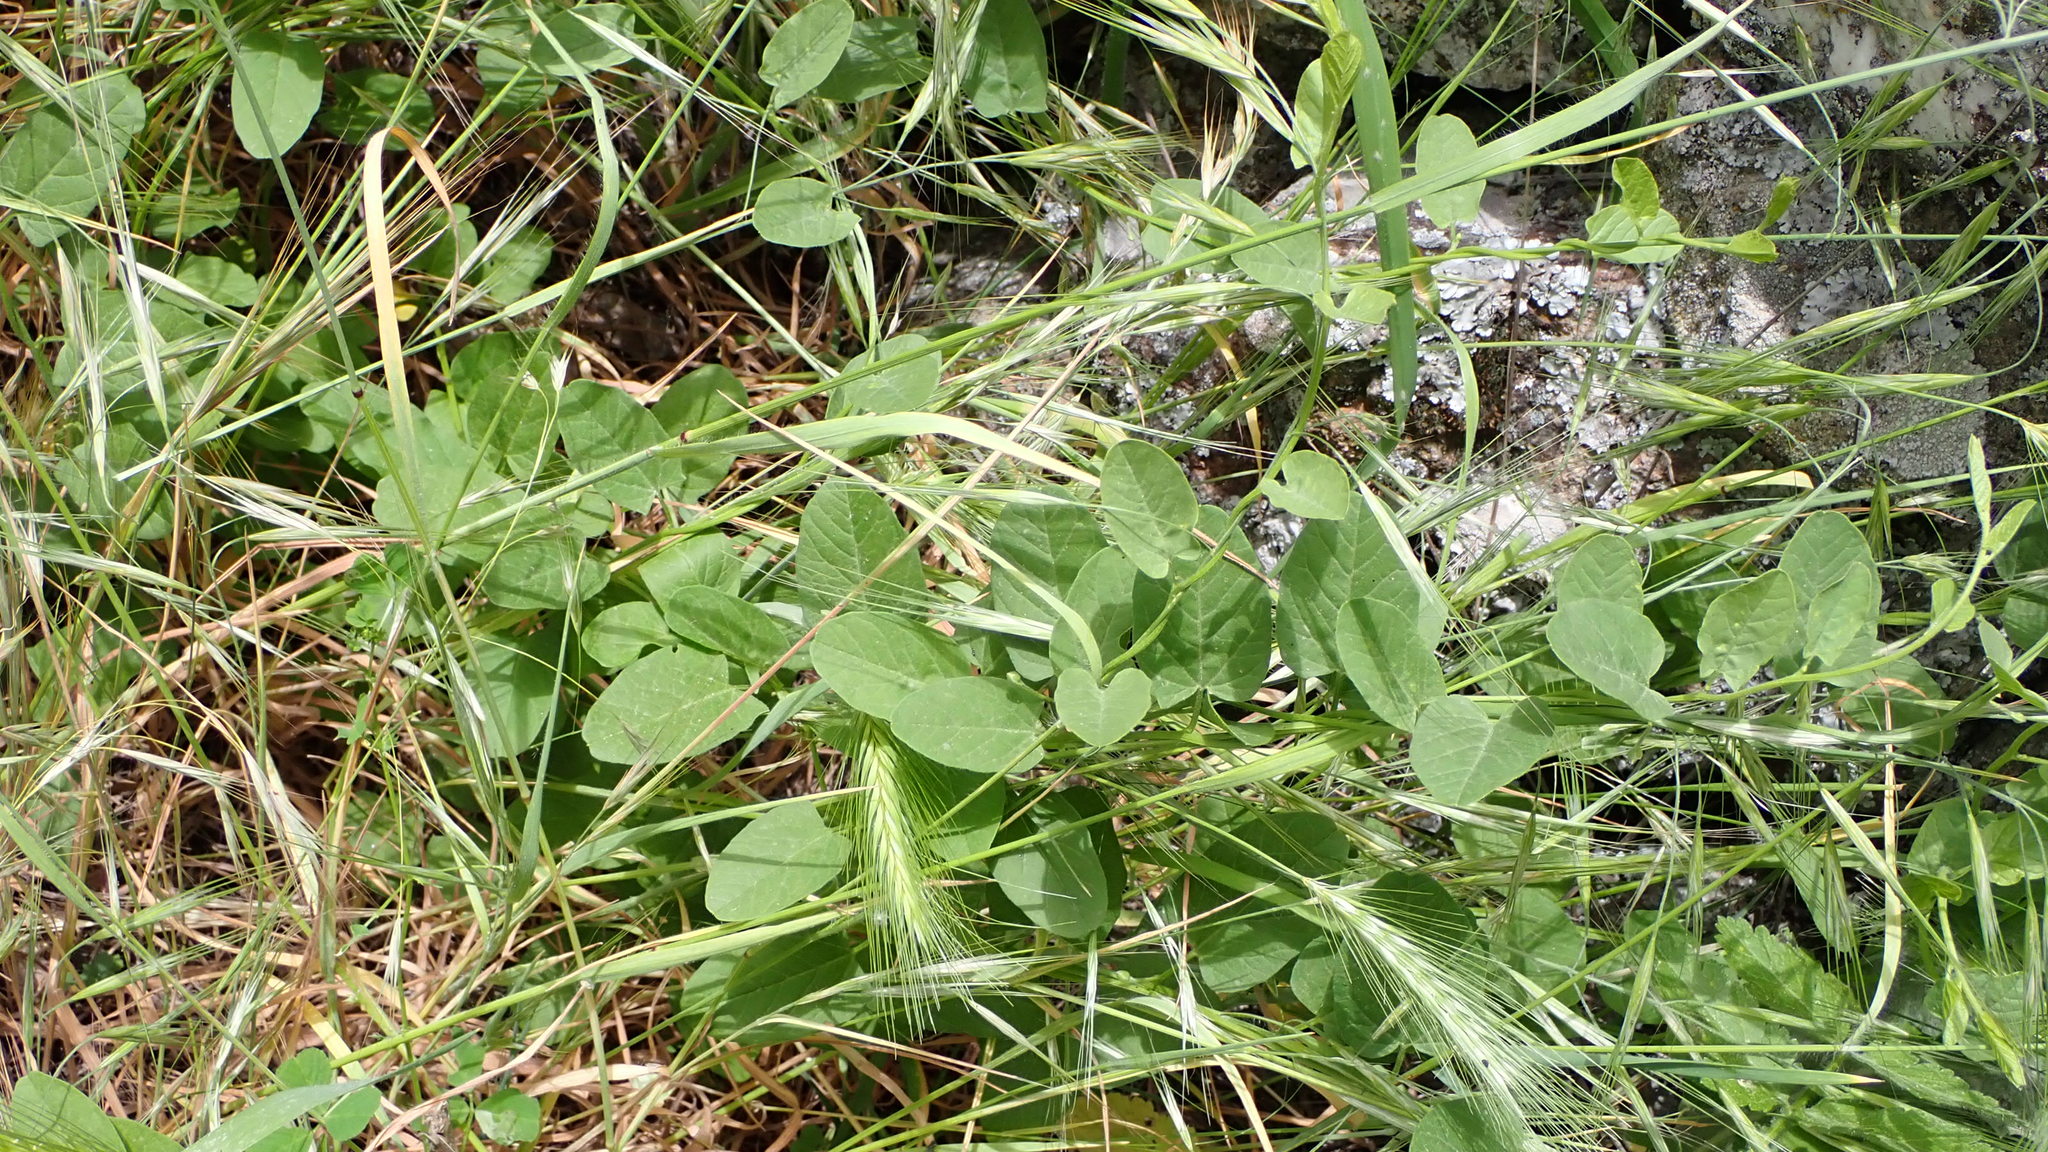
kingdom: Plantae
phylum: Tracheophyta
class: Magnoliopsida
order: Solanales
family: Convolvulaceae
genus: Convolvulus
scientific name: Convolvulus arvensis
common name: Field bindweed
